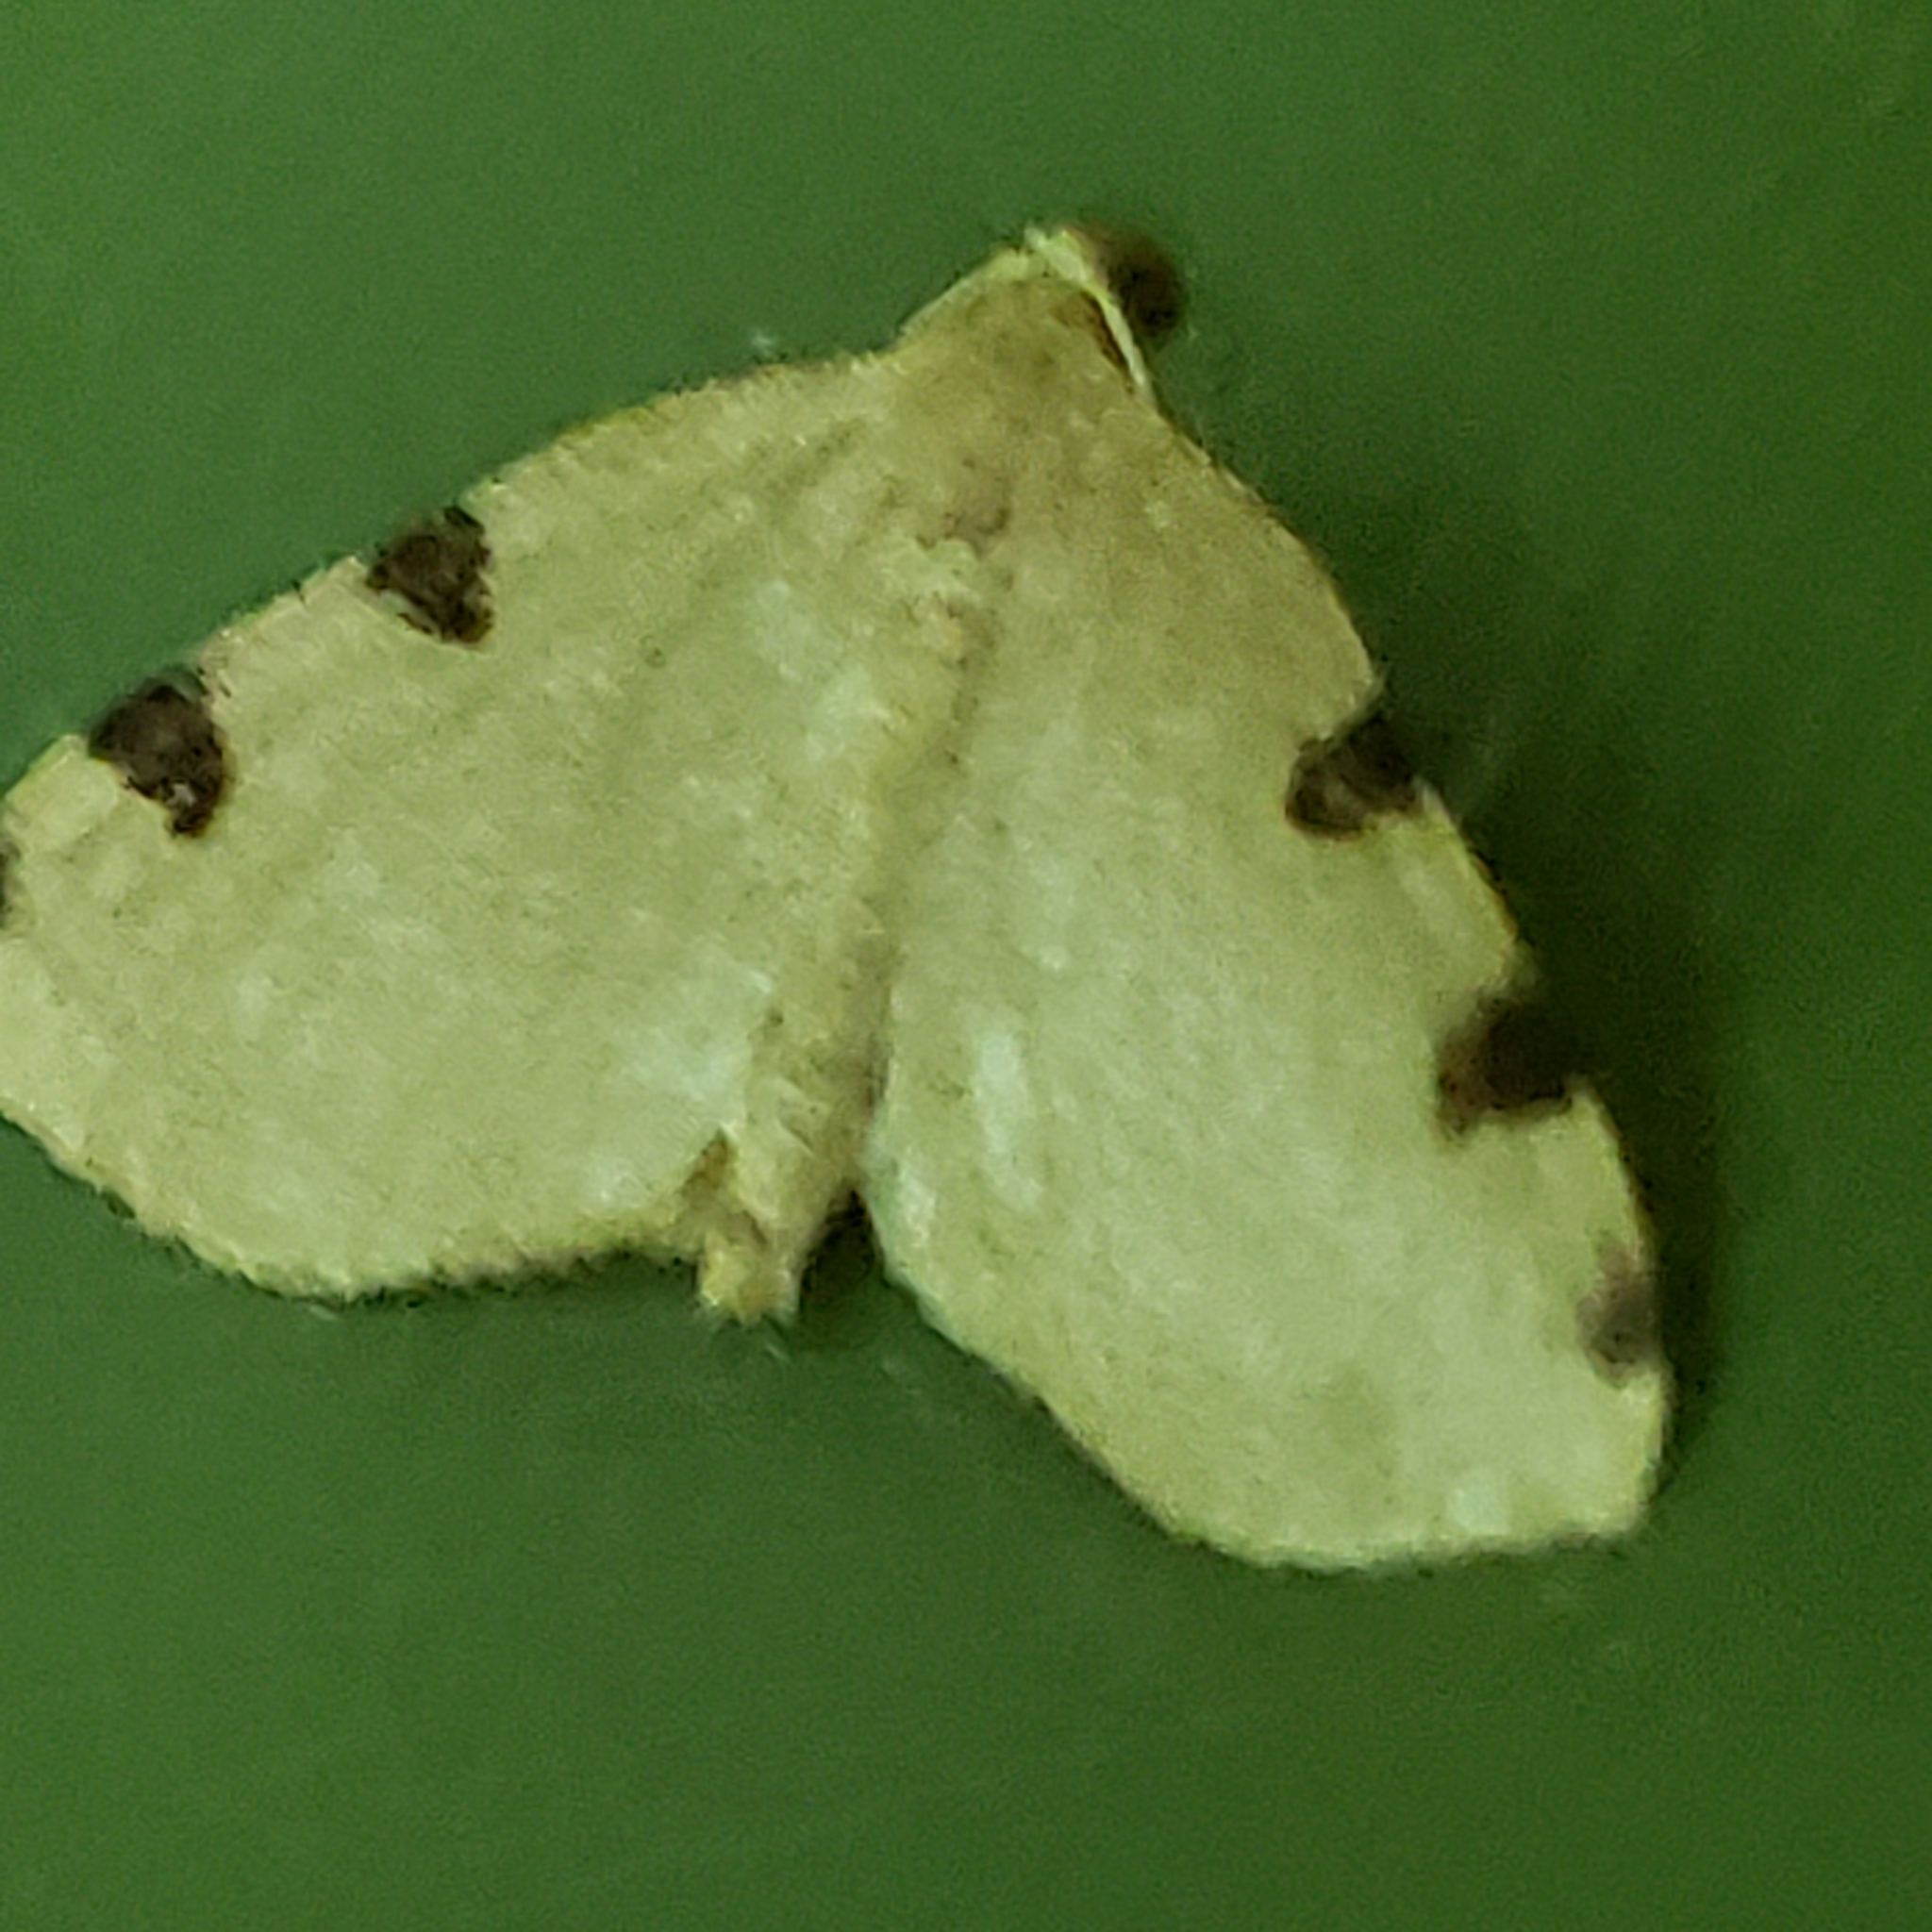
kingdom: Animalia
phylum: Arthropoda
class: Insecta
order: Lepidoptera
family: Geometridae
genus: Heterophleps
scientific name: Heterophleps triguttaria
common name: Three-spotted fillip
